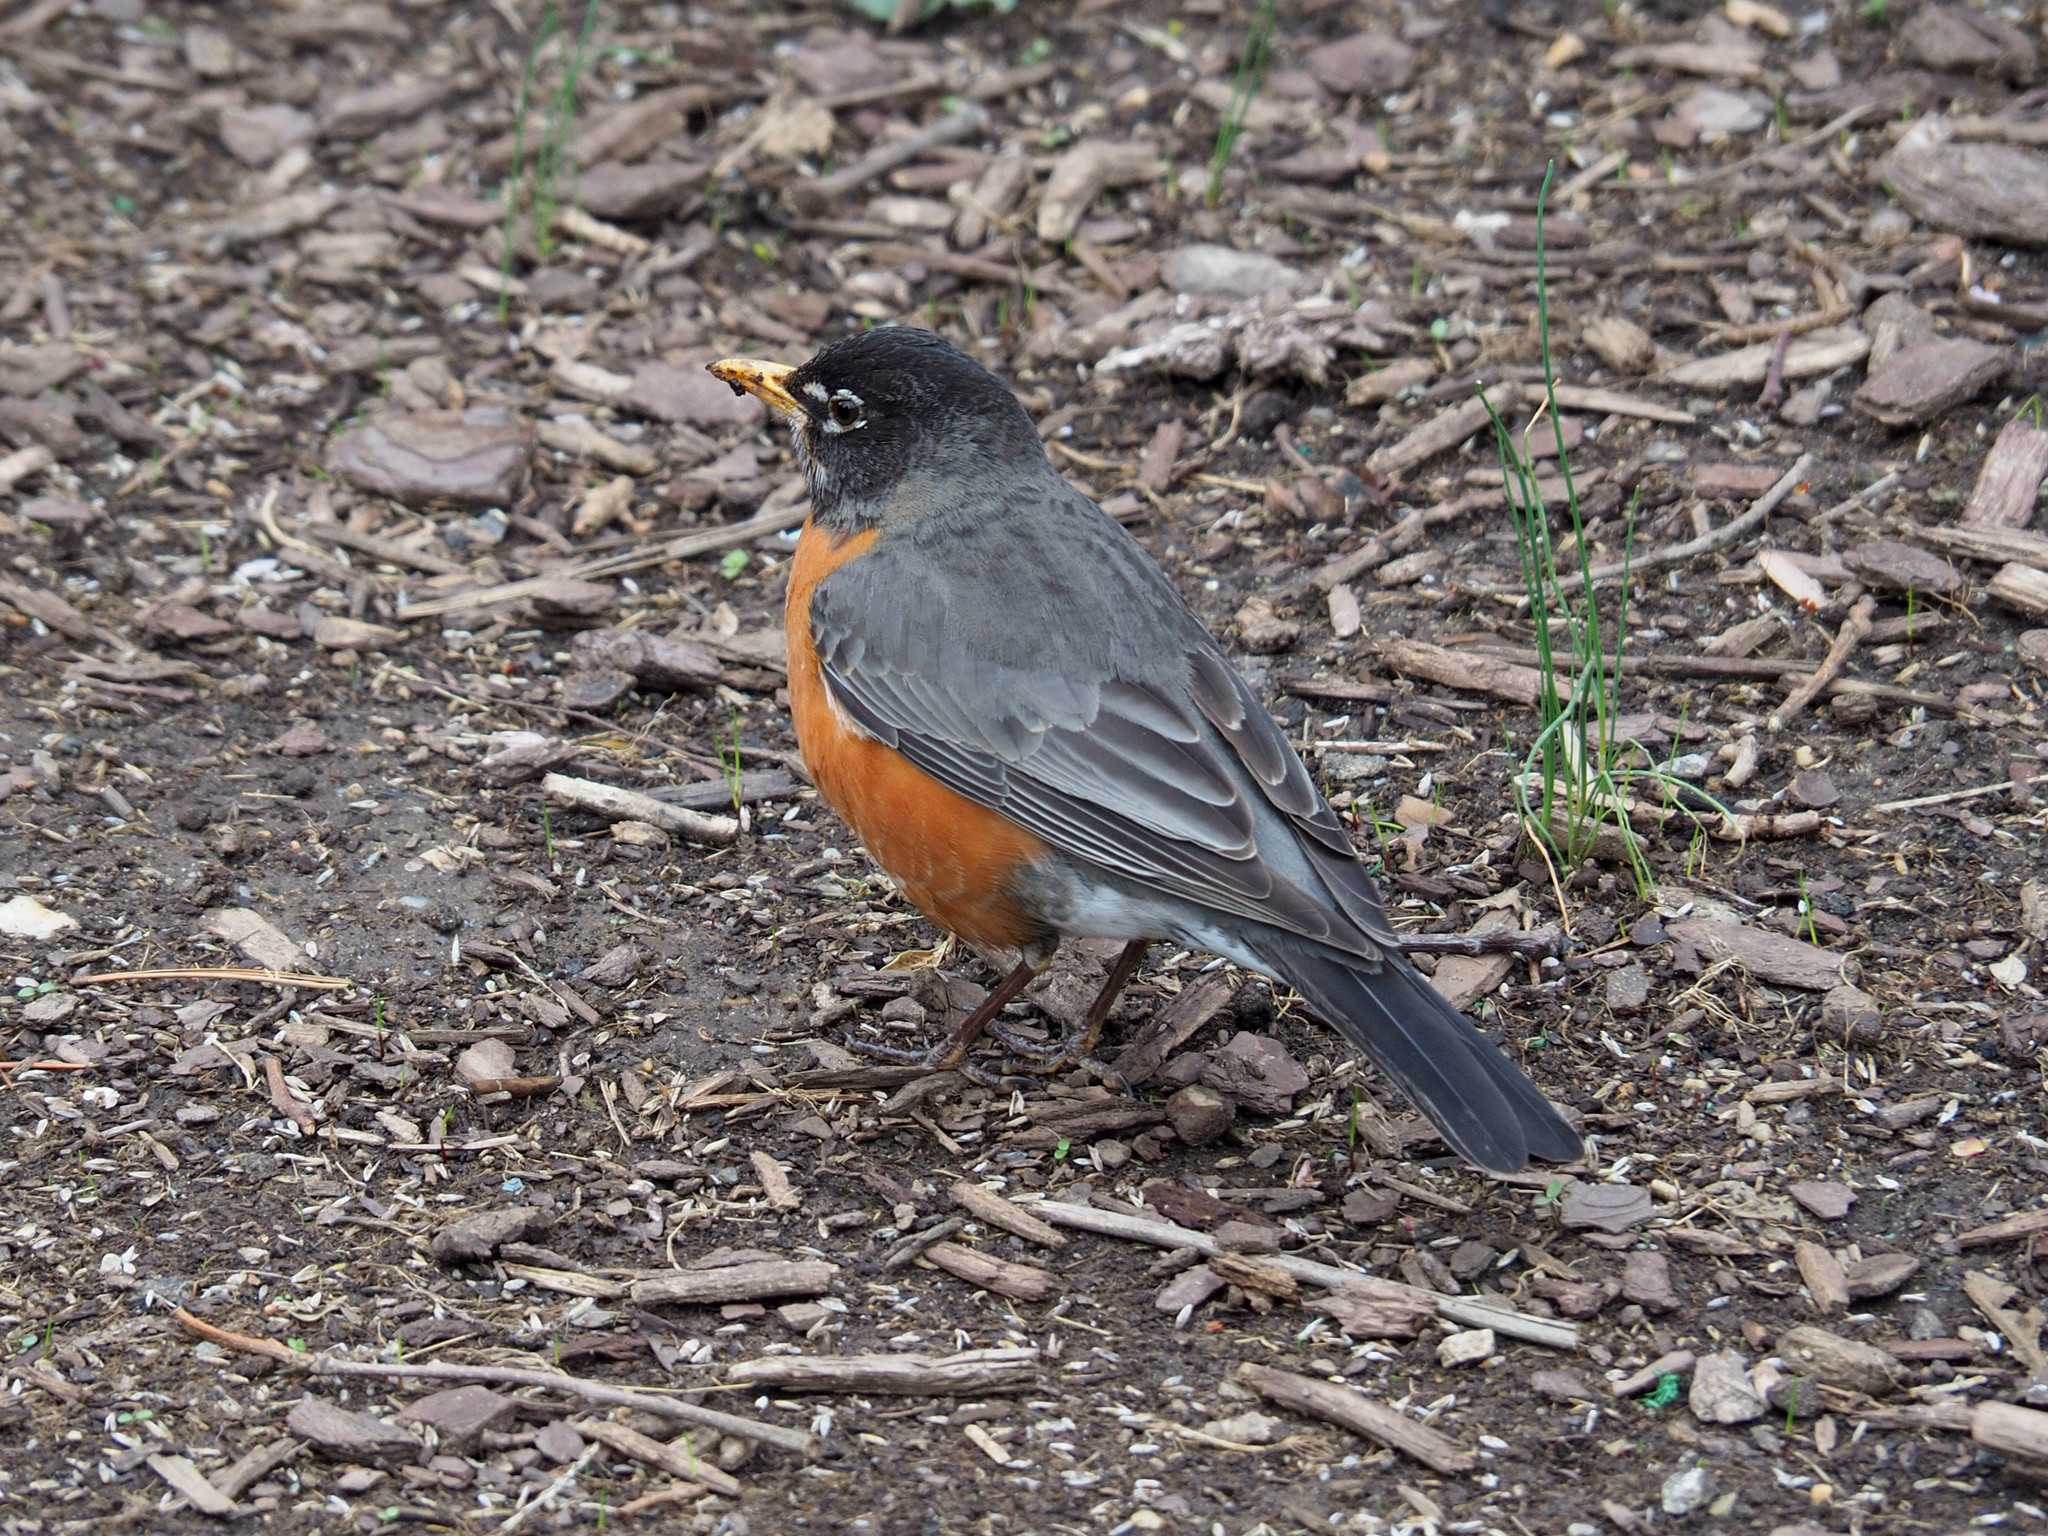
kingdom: Animalia
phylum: Chordata
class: Aves
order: Passeriformes
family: Turdidae
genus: Turdus
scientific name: Turdus migratorius
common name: American robin
